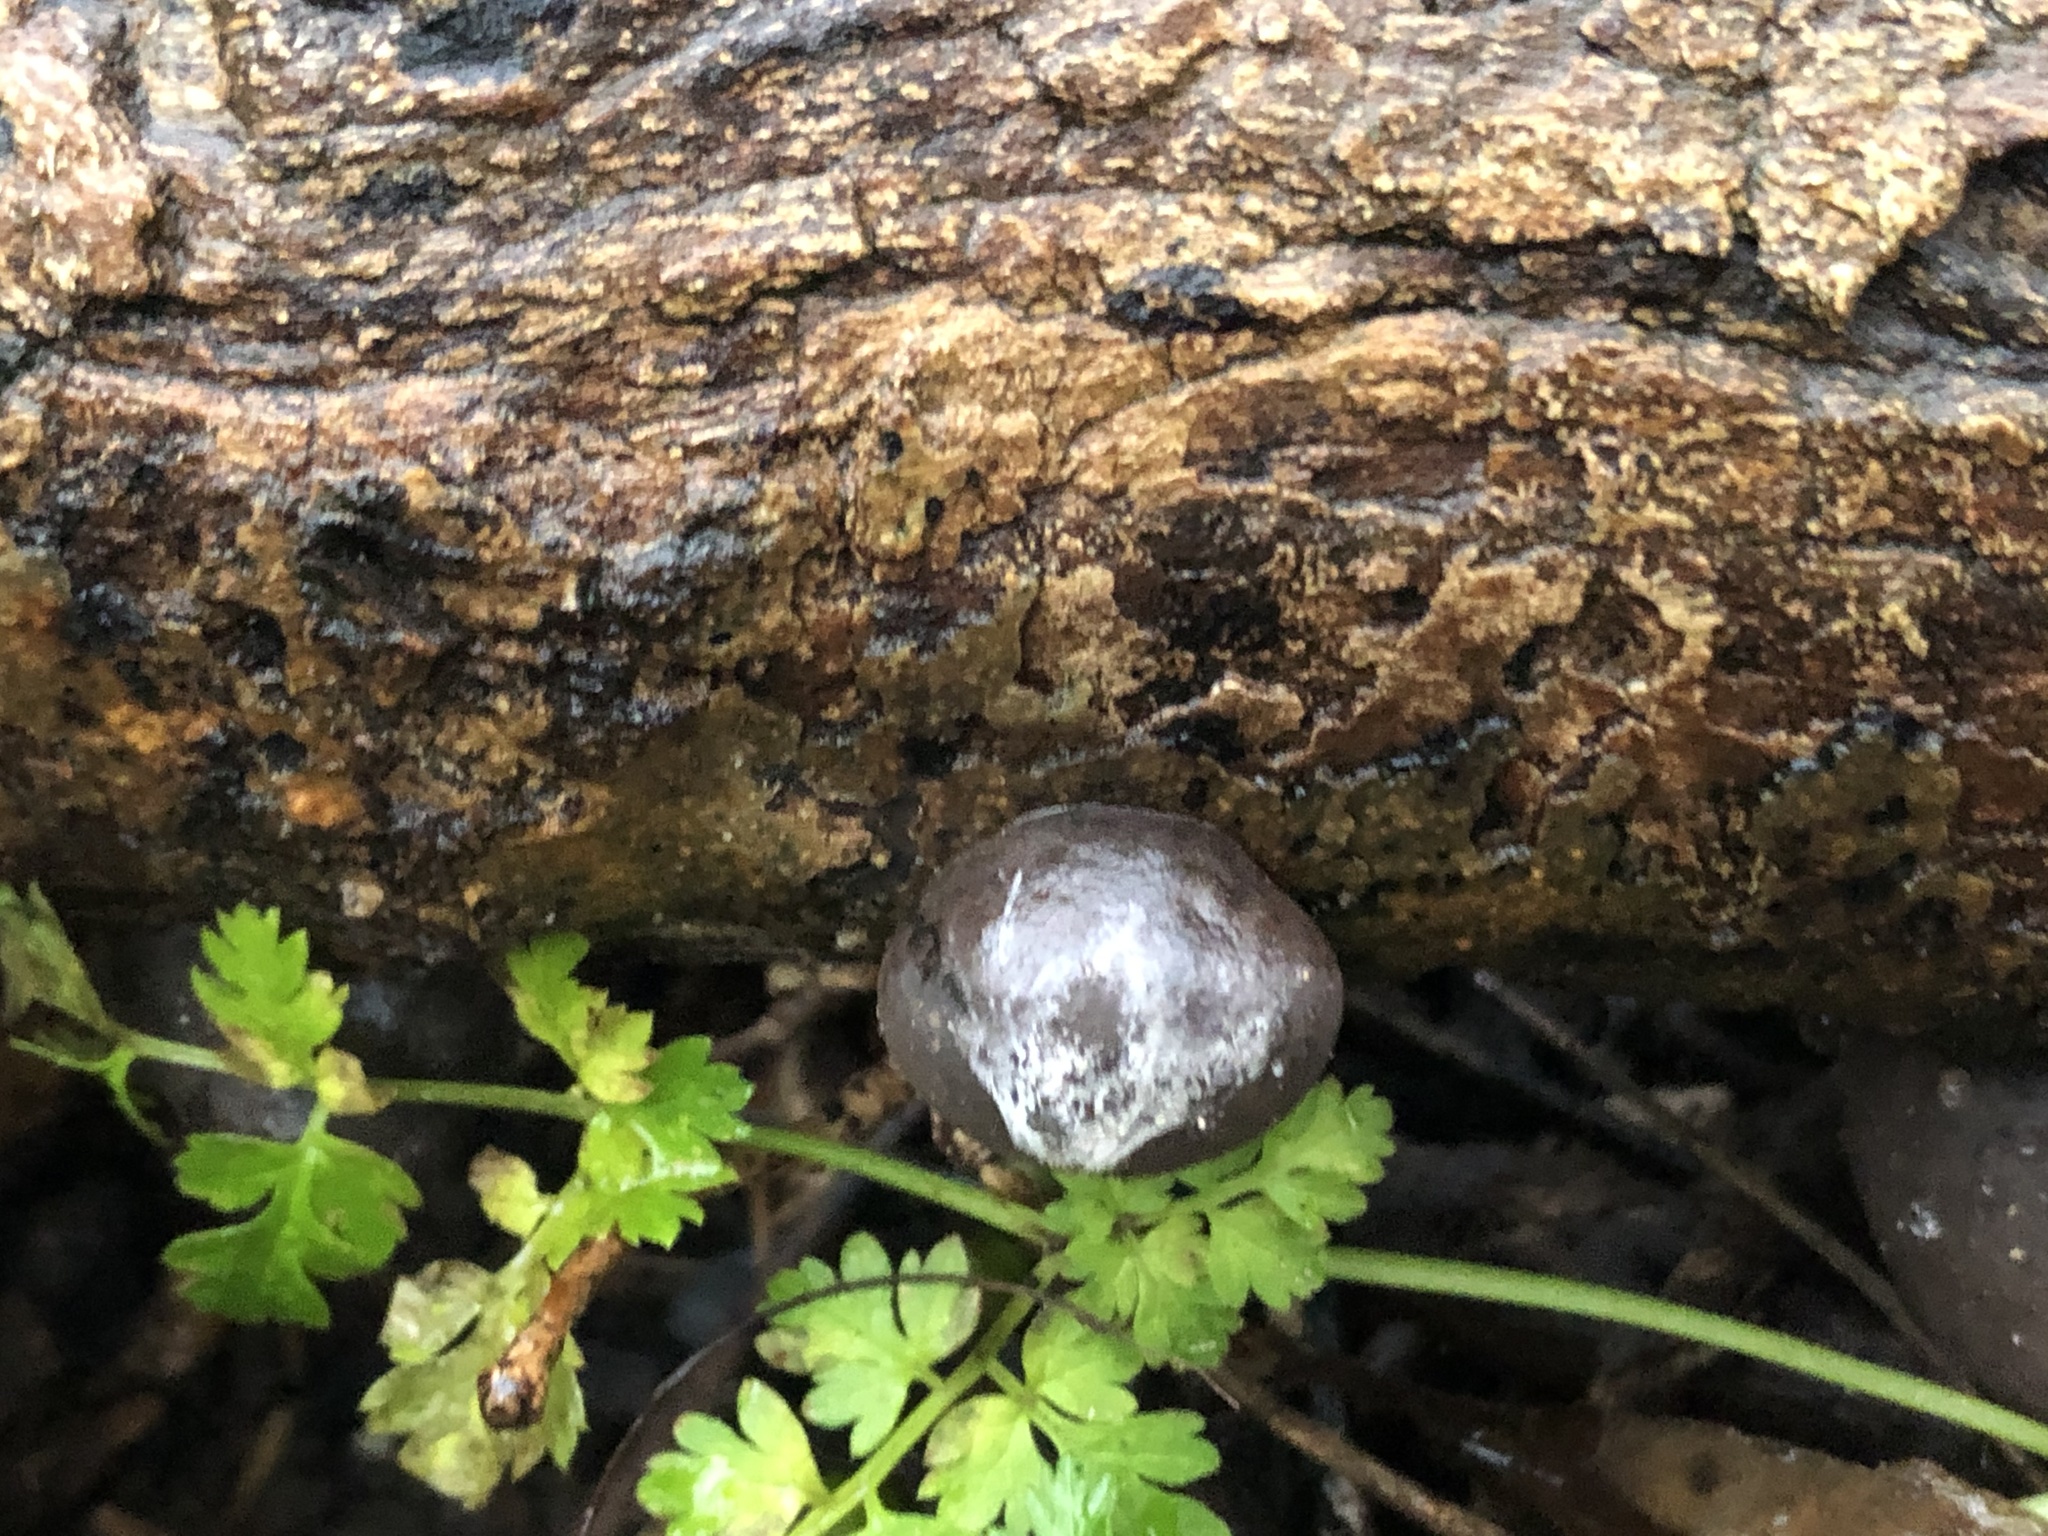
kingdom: Fungi
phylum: Ascomycota
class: Sordariomycetes
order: Xylariales
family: Hypoxylaceae
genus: Daldinia
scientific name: Daldinia concentrica
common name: Cramp balls
